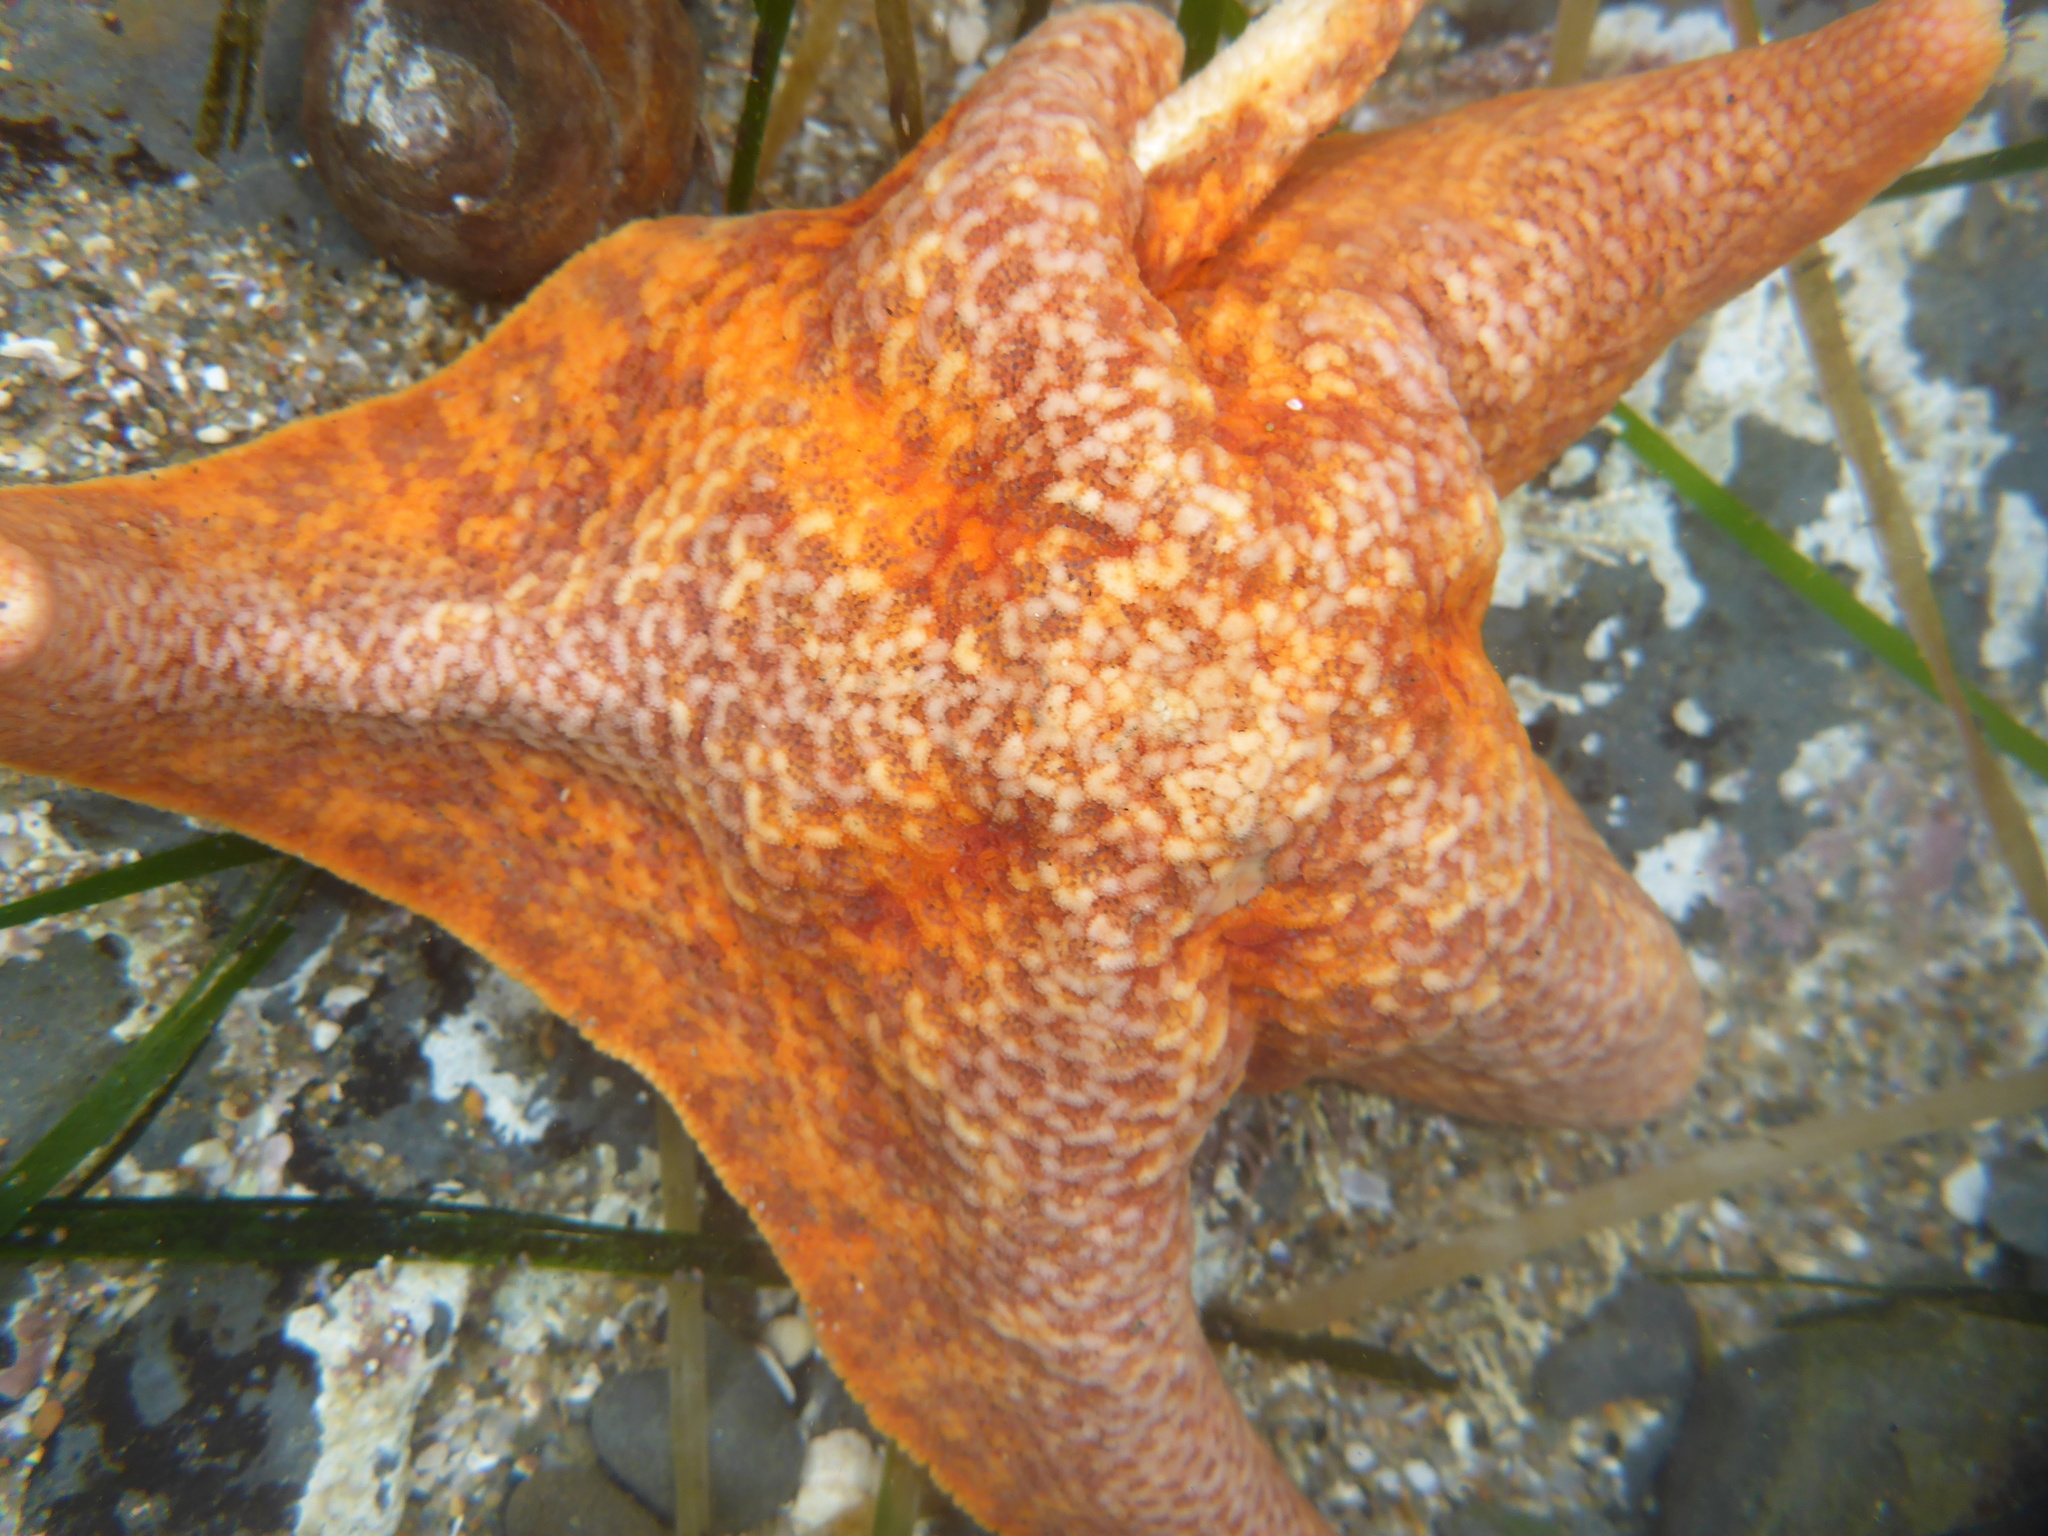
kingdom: Animalia
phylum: Echinodermata
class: Asteroidea
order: Valvatida
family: Asterinidae
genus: Patiria
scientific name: Patiria miniata
